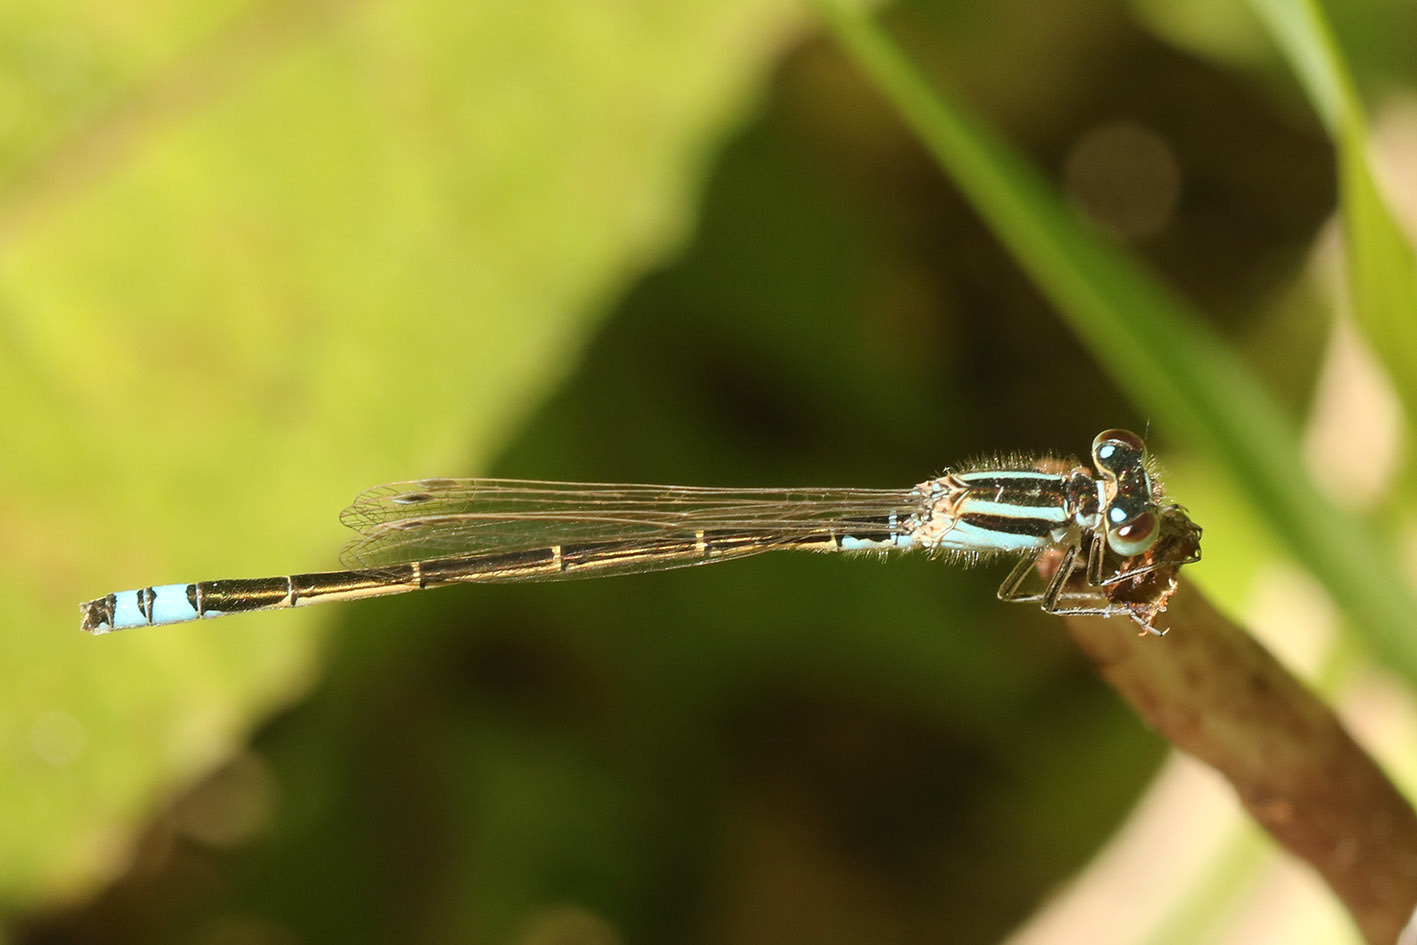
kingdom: Animalia
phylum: Arthropoda
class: Insecta
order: Odonata
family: Coenagrionidae
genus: Ischnura
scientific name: Ischnura fluviatilis
